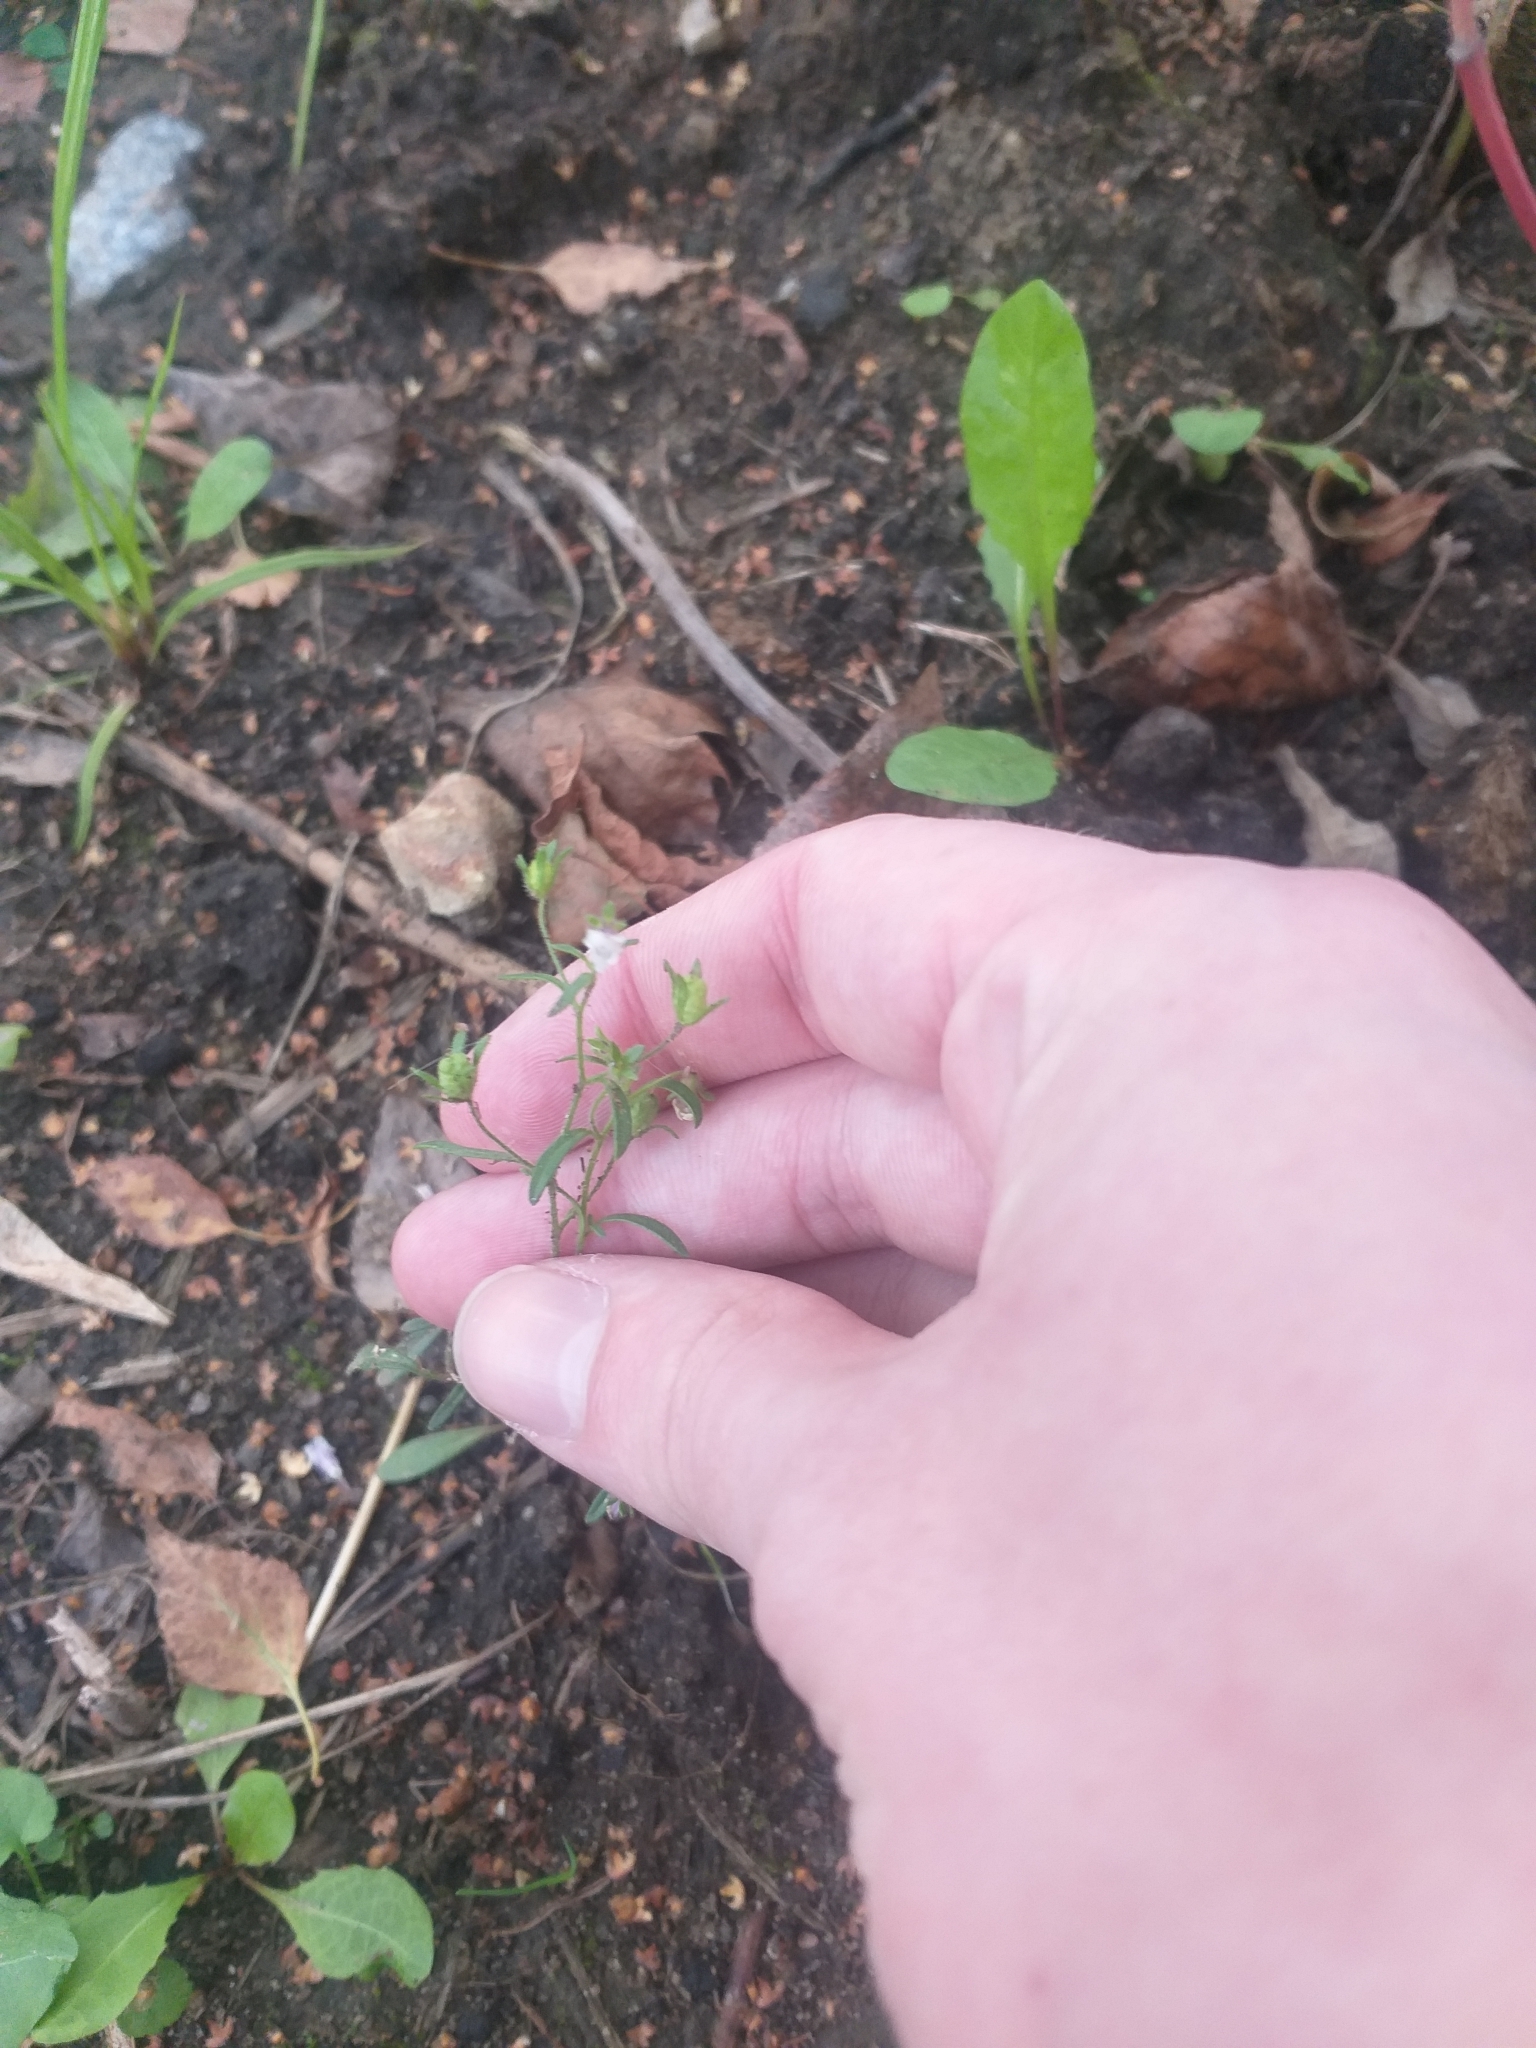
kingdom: Plantae
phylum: Tracheophyta
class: Magnoliopsida
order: Lamiales
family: Plantaginaceae
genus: Chaenorhinum
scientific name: Chaenorhinum minus
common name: Dwarf snapdragon
